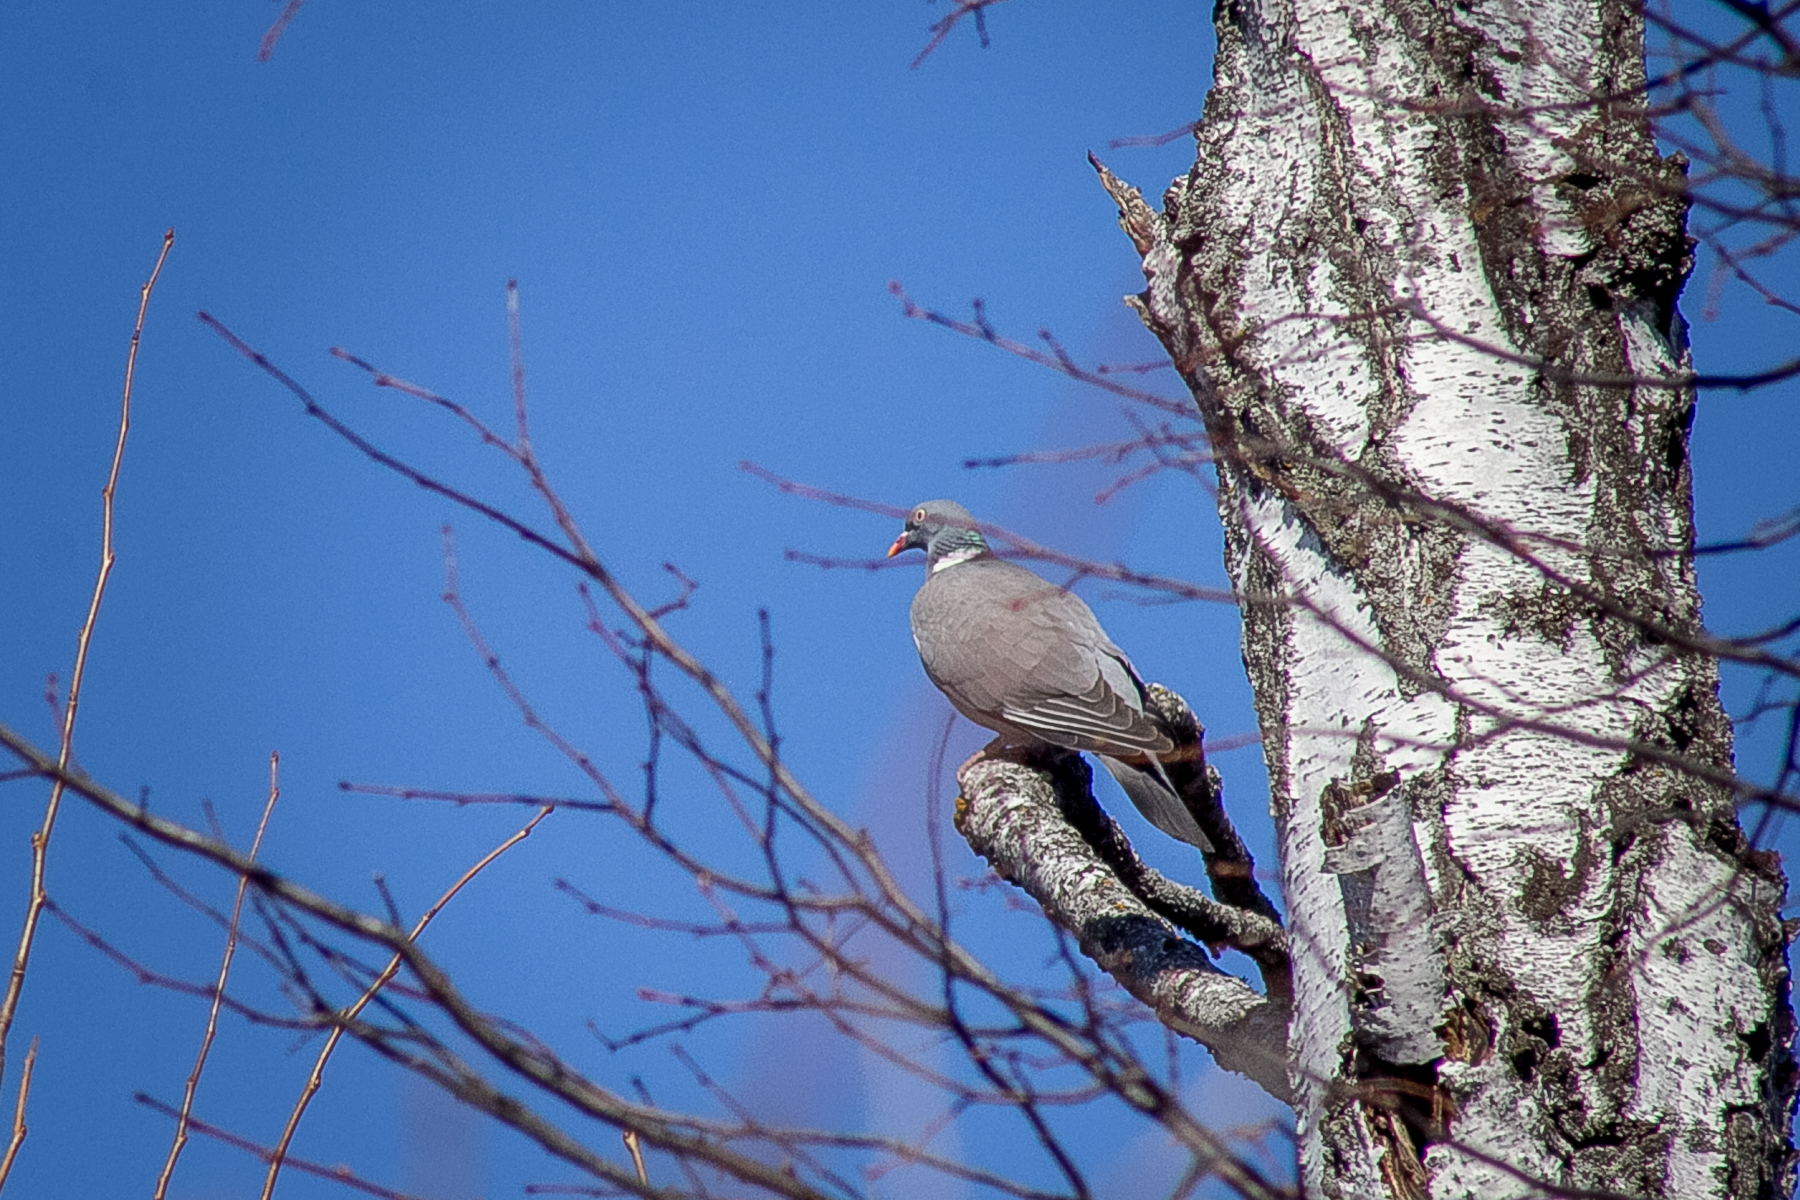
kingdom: Animalia
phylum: Chordata
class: Aves
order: Columbiformes
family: Columbidae
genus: Columba
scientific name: Columba palumbus
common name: Common wood pigeon
